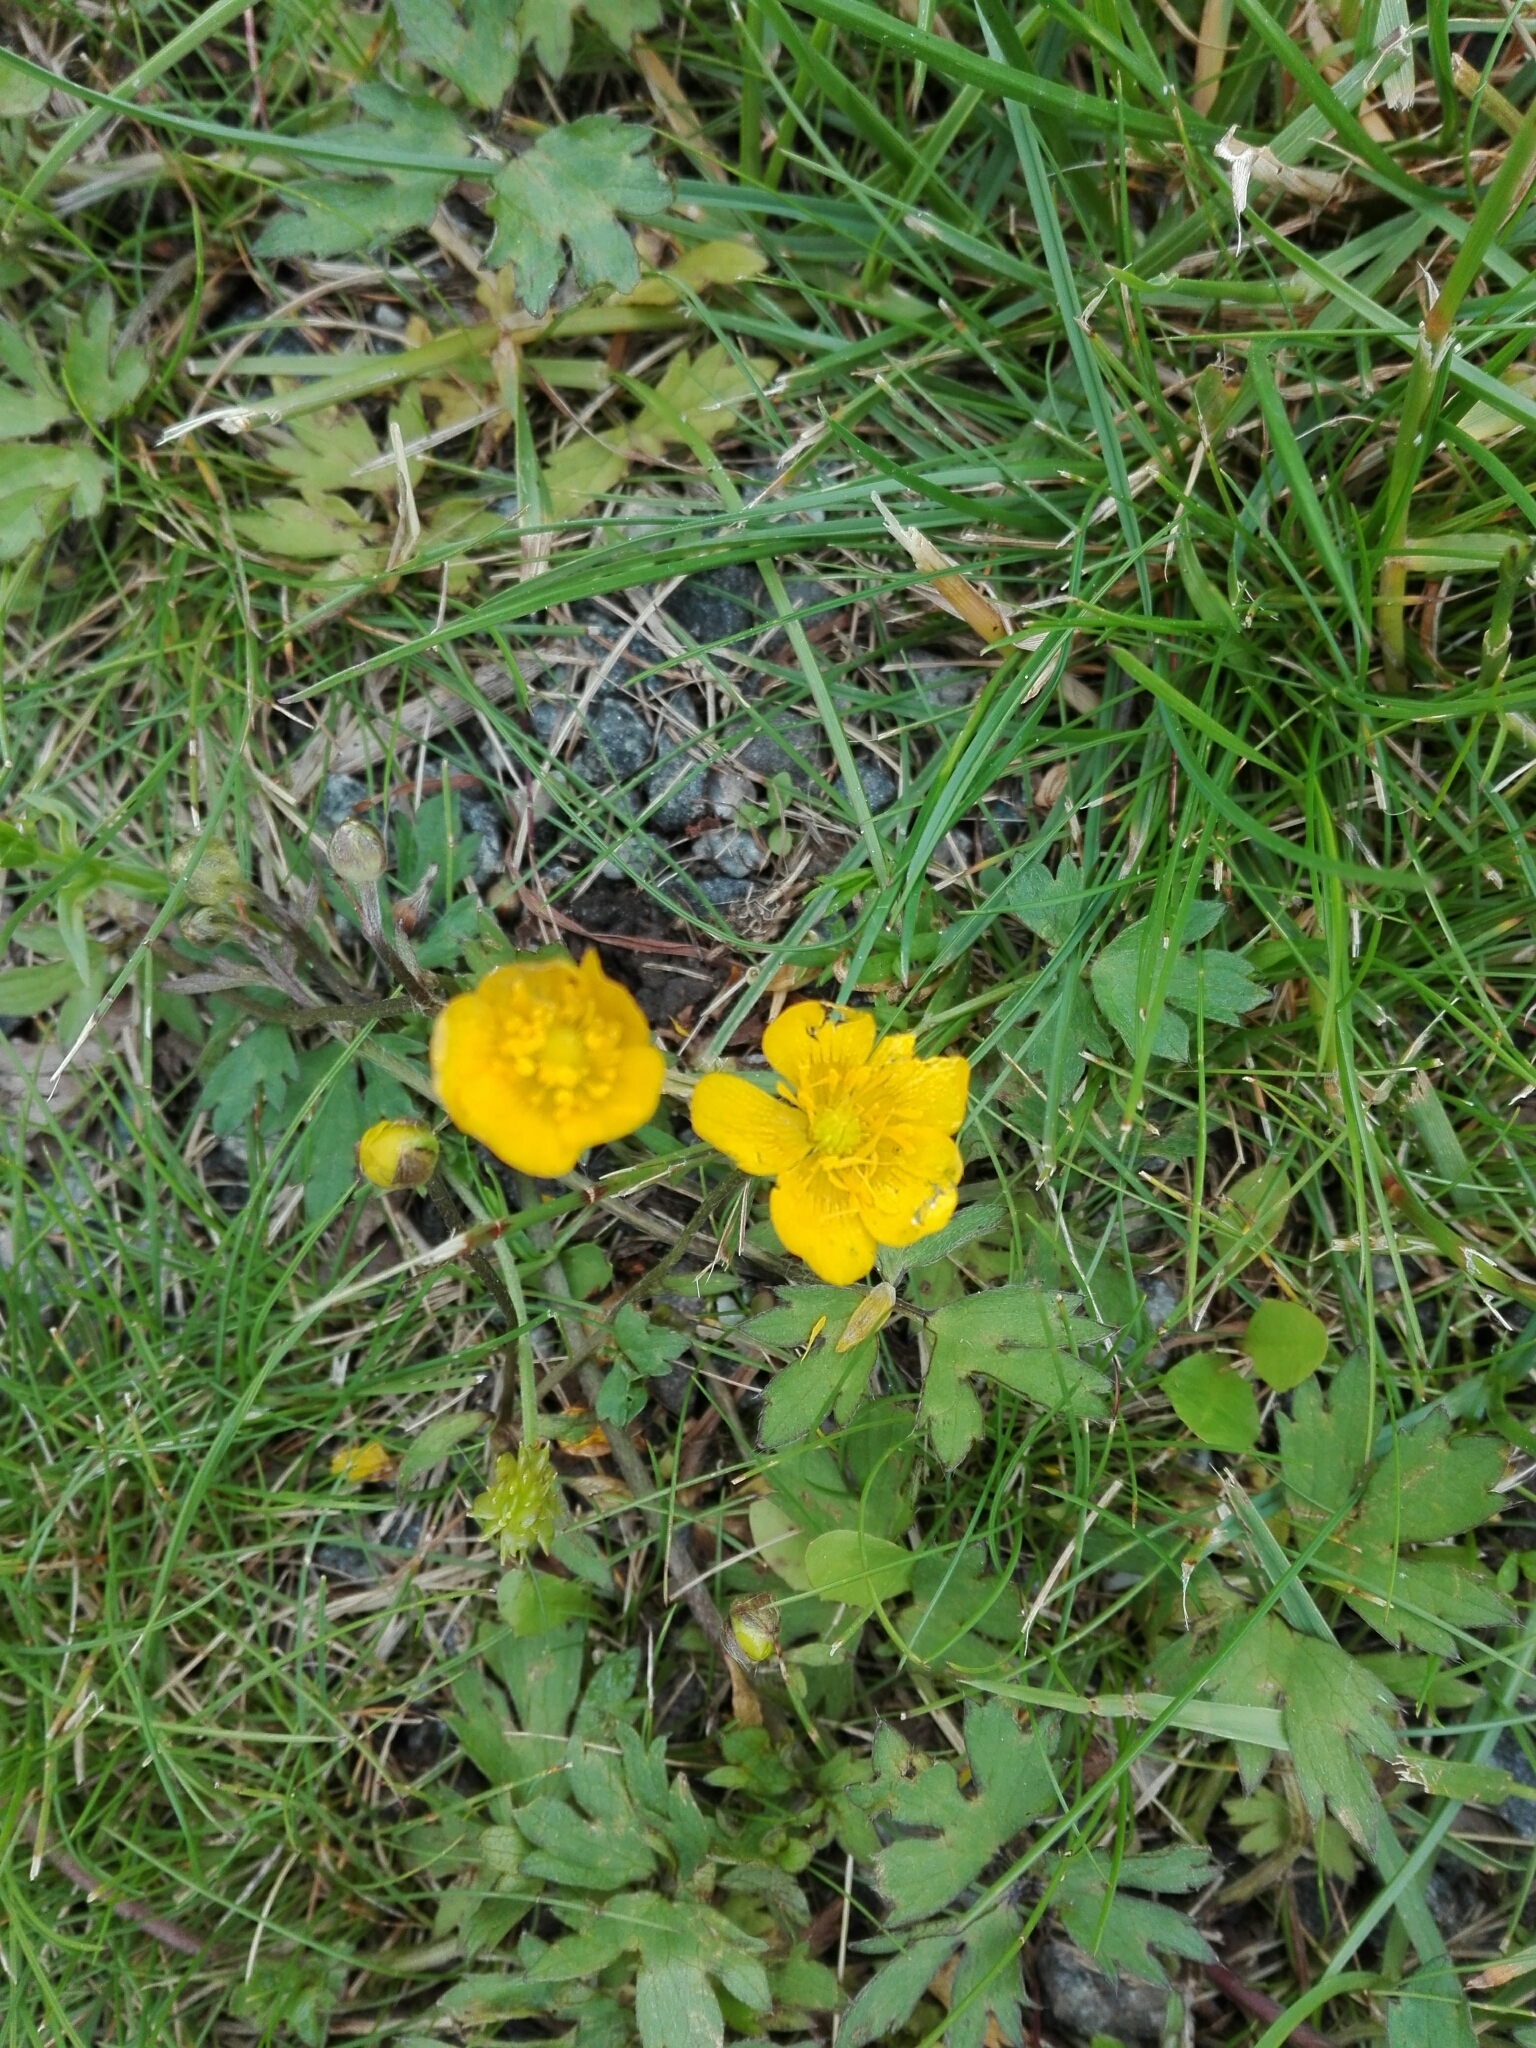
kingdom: Plantae
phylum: Tracheophyta
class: Magnoliopsida
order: Ranunculales
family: Ranunculaceae
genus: Ranunculus
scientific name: Ranunculus repens
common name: Creeping buttercup
